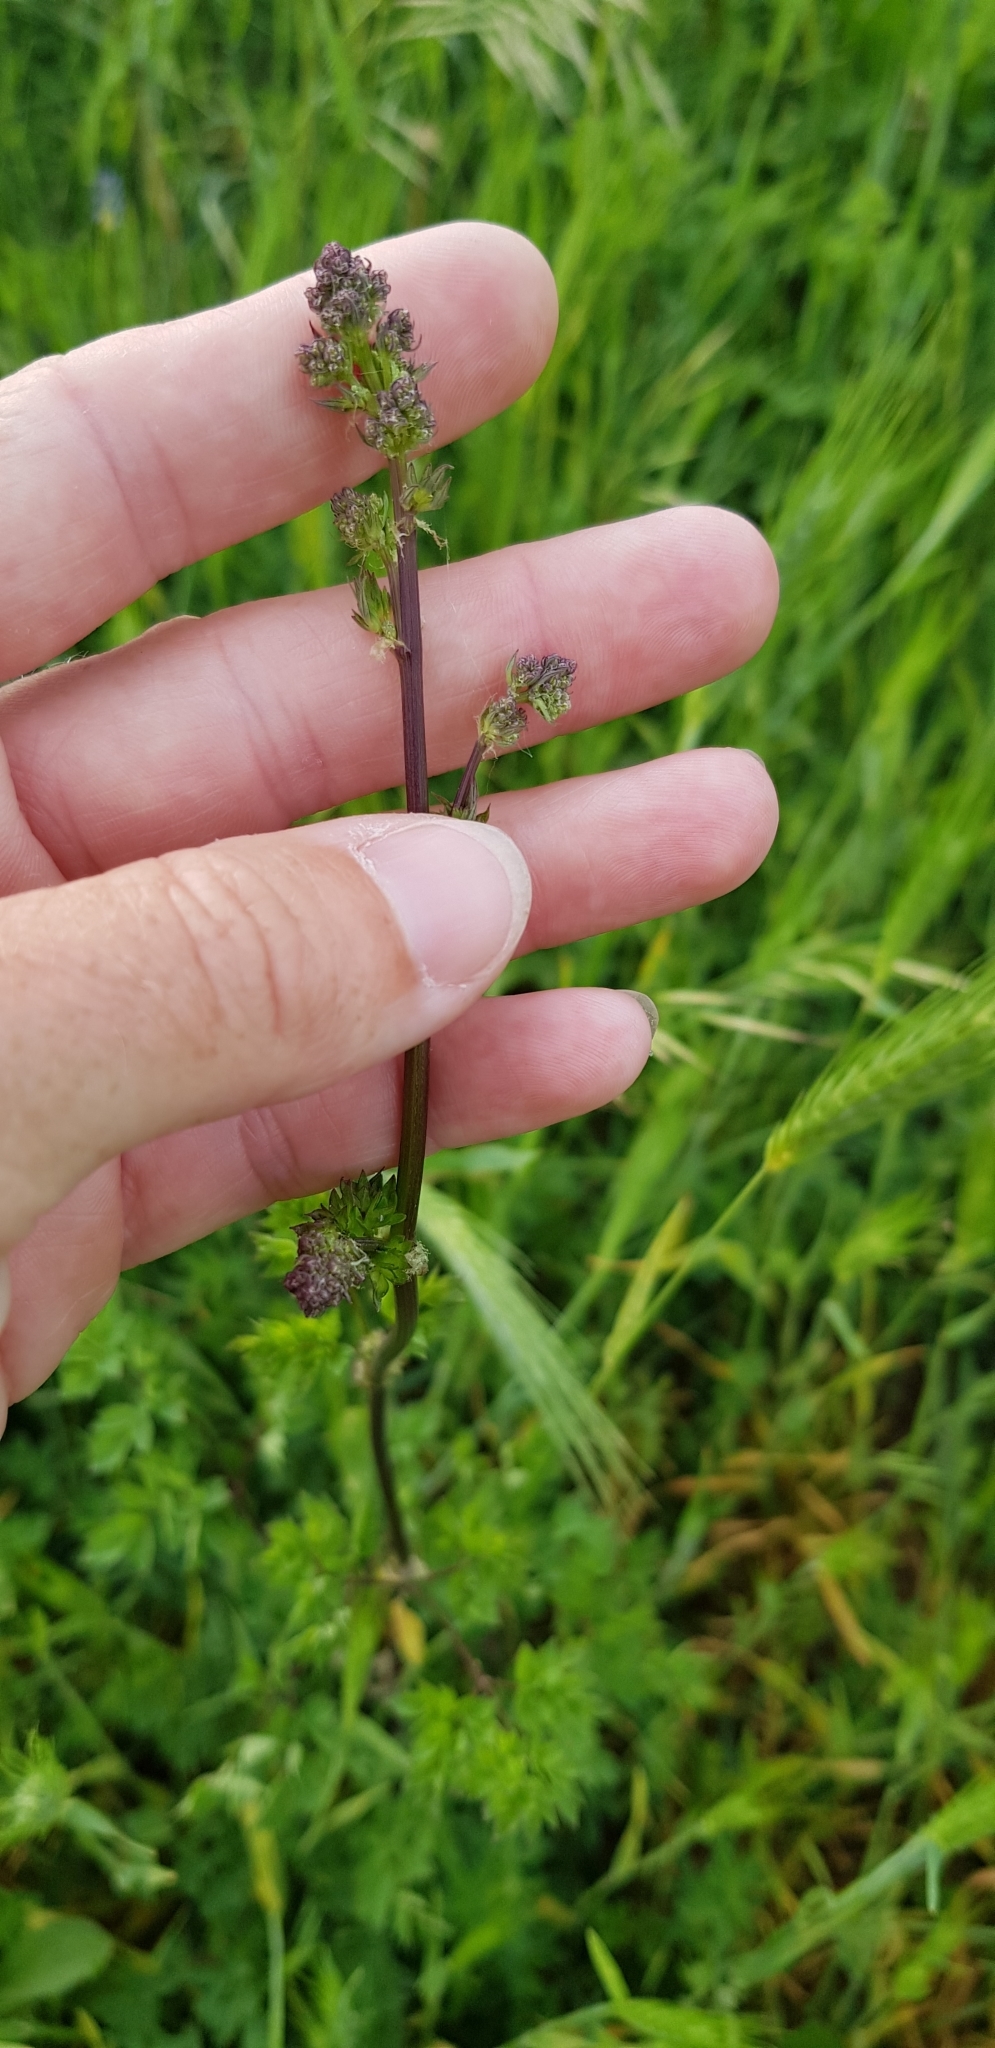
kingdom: Plantae
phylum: Tracheophyta
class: Magnoliopsida
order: Ranunculales
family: Ranunculaceae
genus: Thalictrum
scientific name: Thalictrum minus
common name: Lesser meadow-rue
